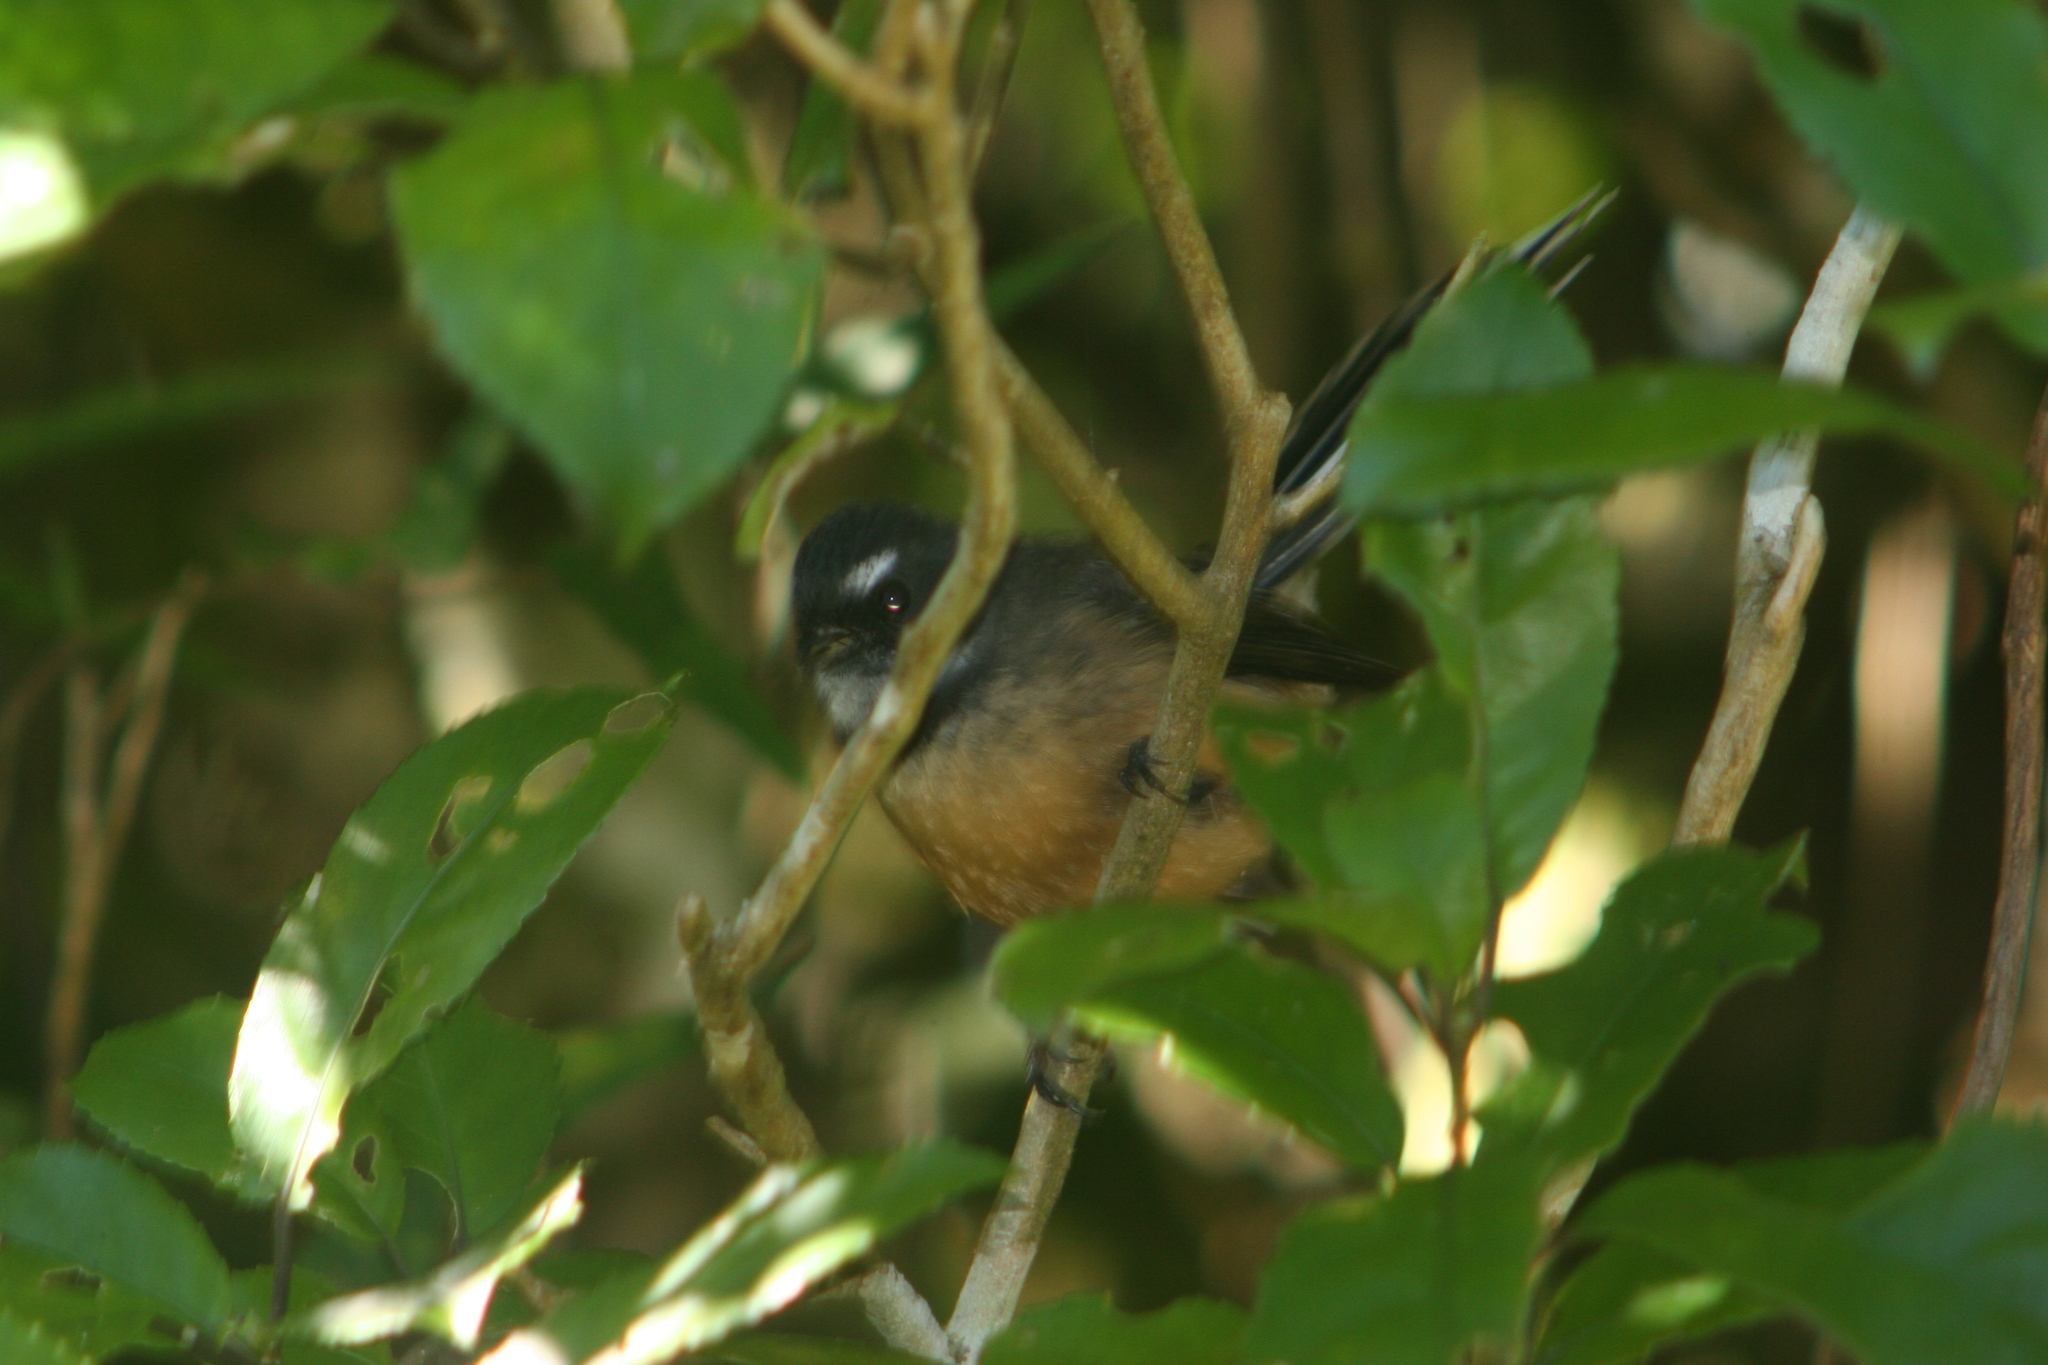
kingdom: Animalia
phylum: Chordata
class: Aves
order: Passeriformes
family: Rhipiduridae
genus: Rhipidura
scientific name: Rhipidura fuliginosa
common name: New zealand fantail
